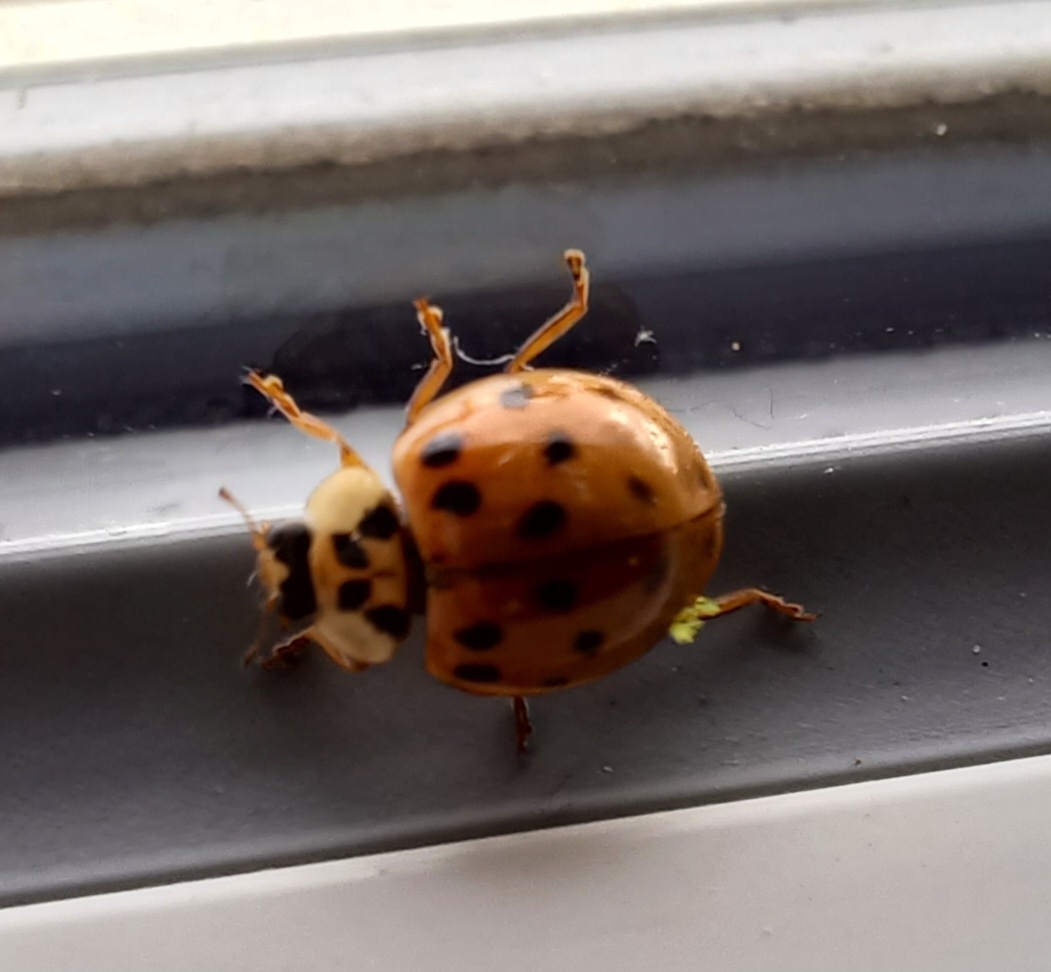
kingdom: Animalia
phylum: Arthropoda
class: Insecta
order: Coleoptera
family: Coccinellidae
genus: Harmonia
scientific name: Harmonia axyridis
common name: Harlequin ladybird
